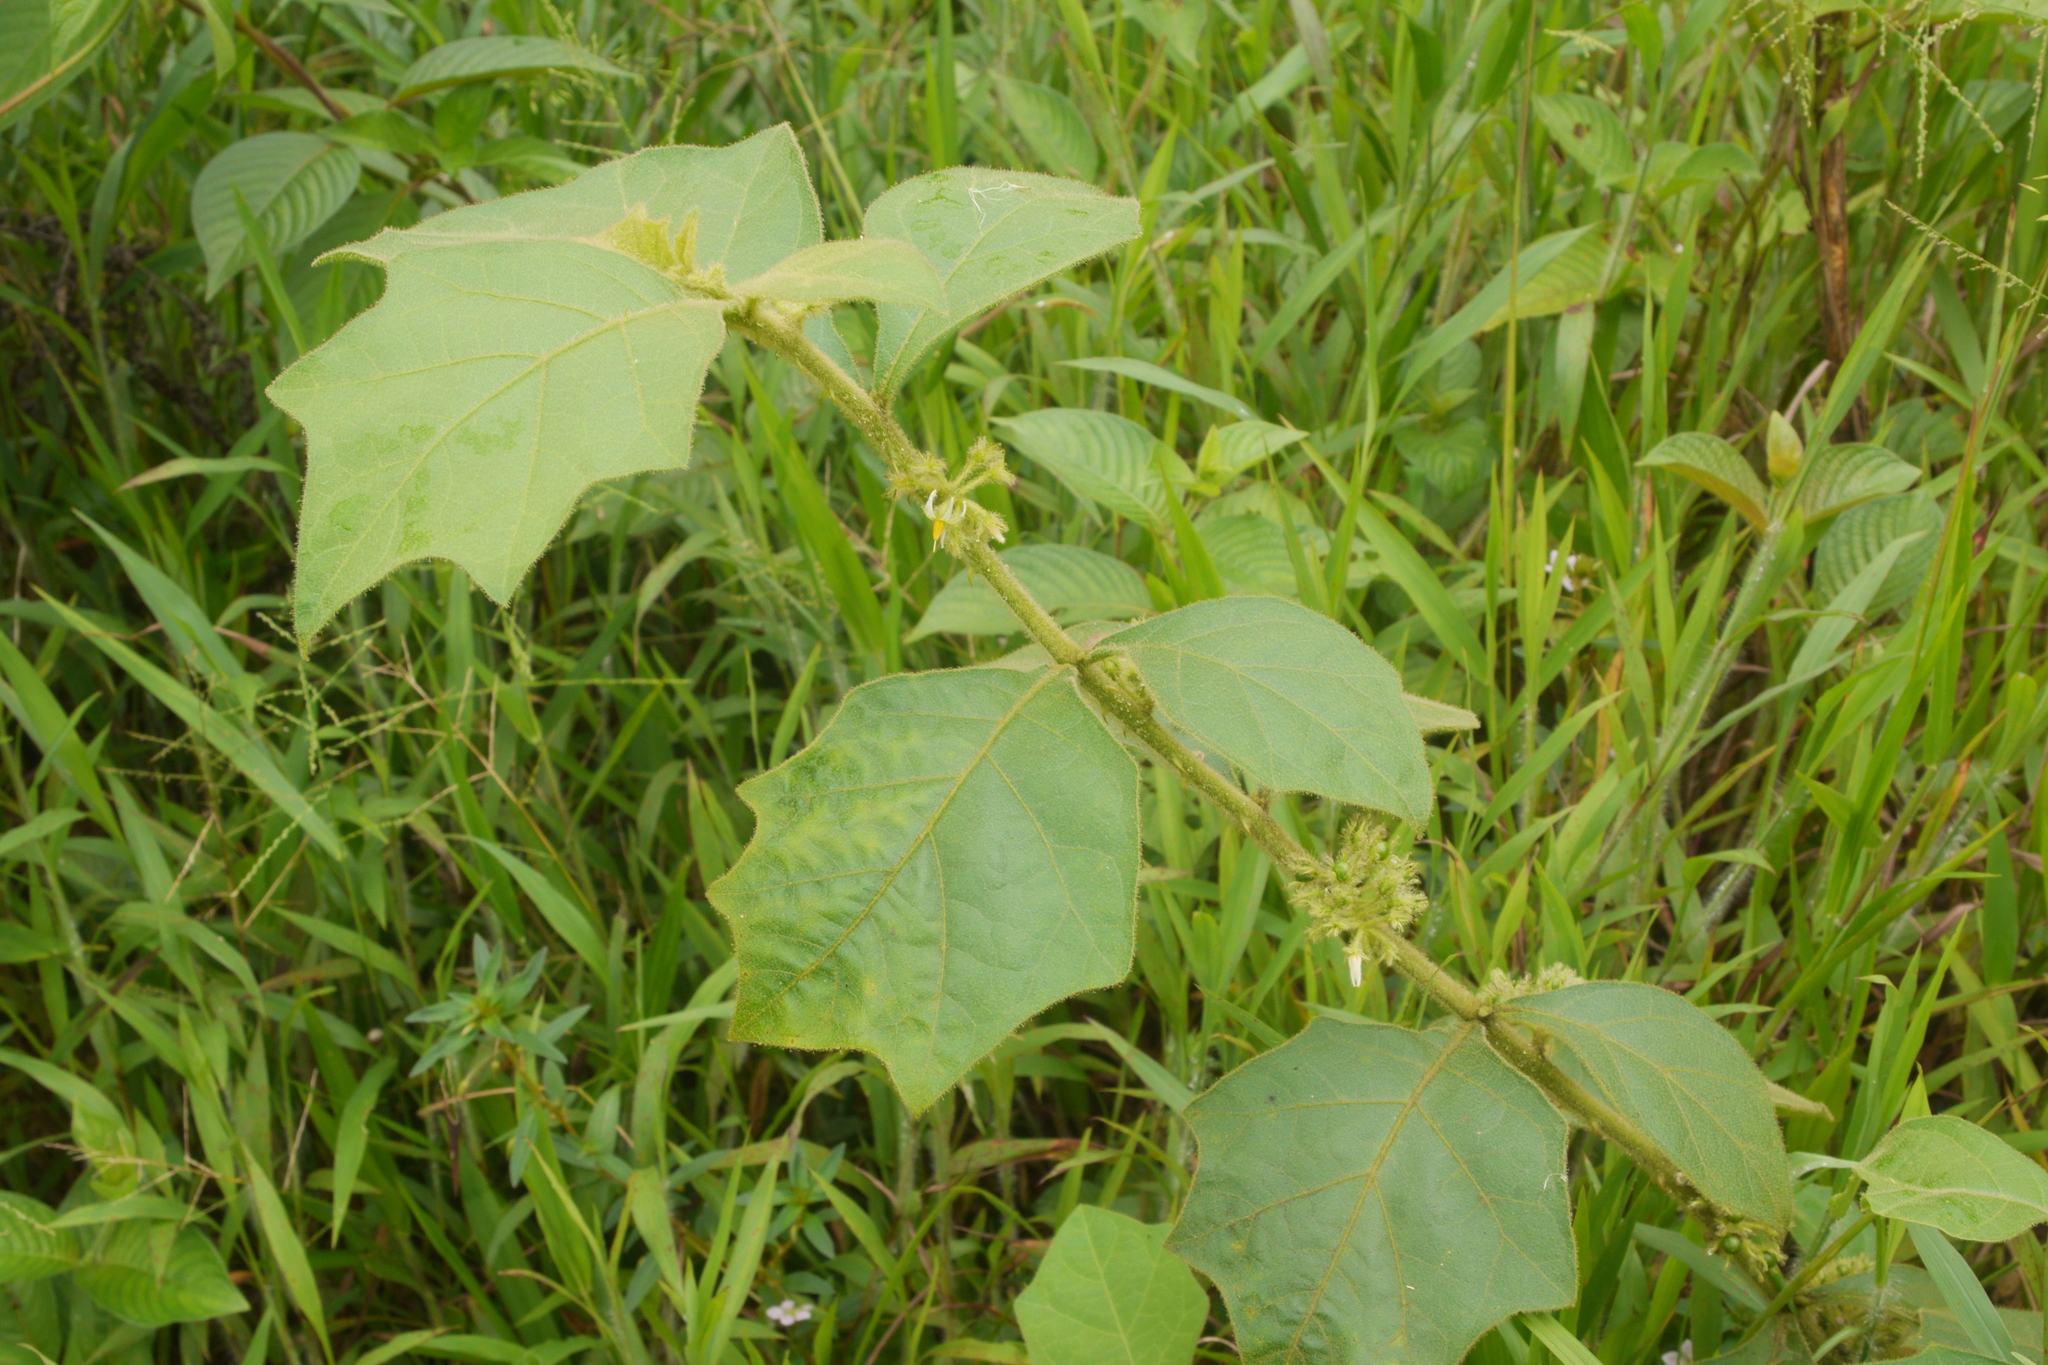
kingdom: Plantae
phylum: Tracheophyta
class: Magnoliopsida
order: Solanales
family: Solanaceae
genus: Solanum
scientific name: Solanum jamaicense
